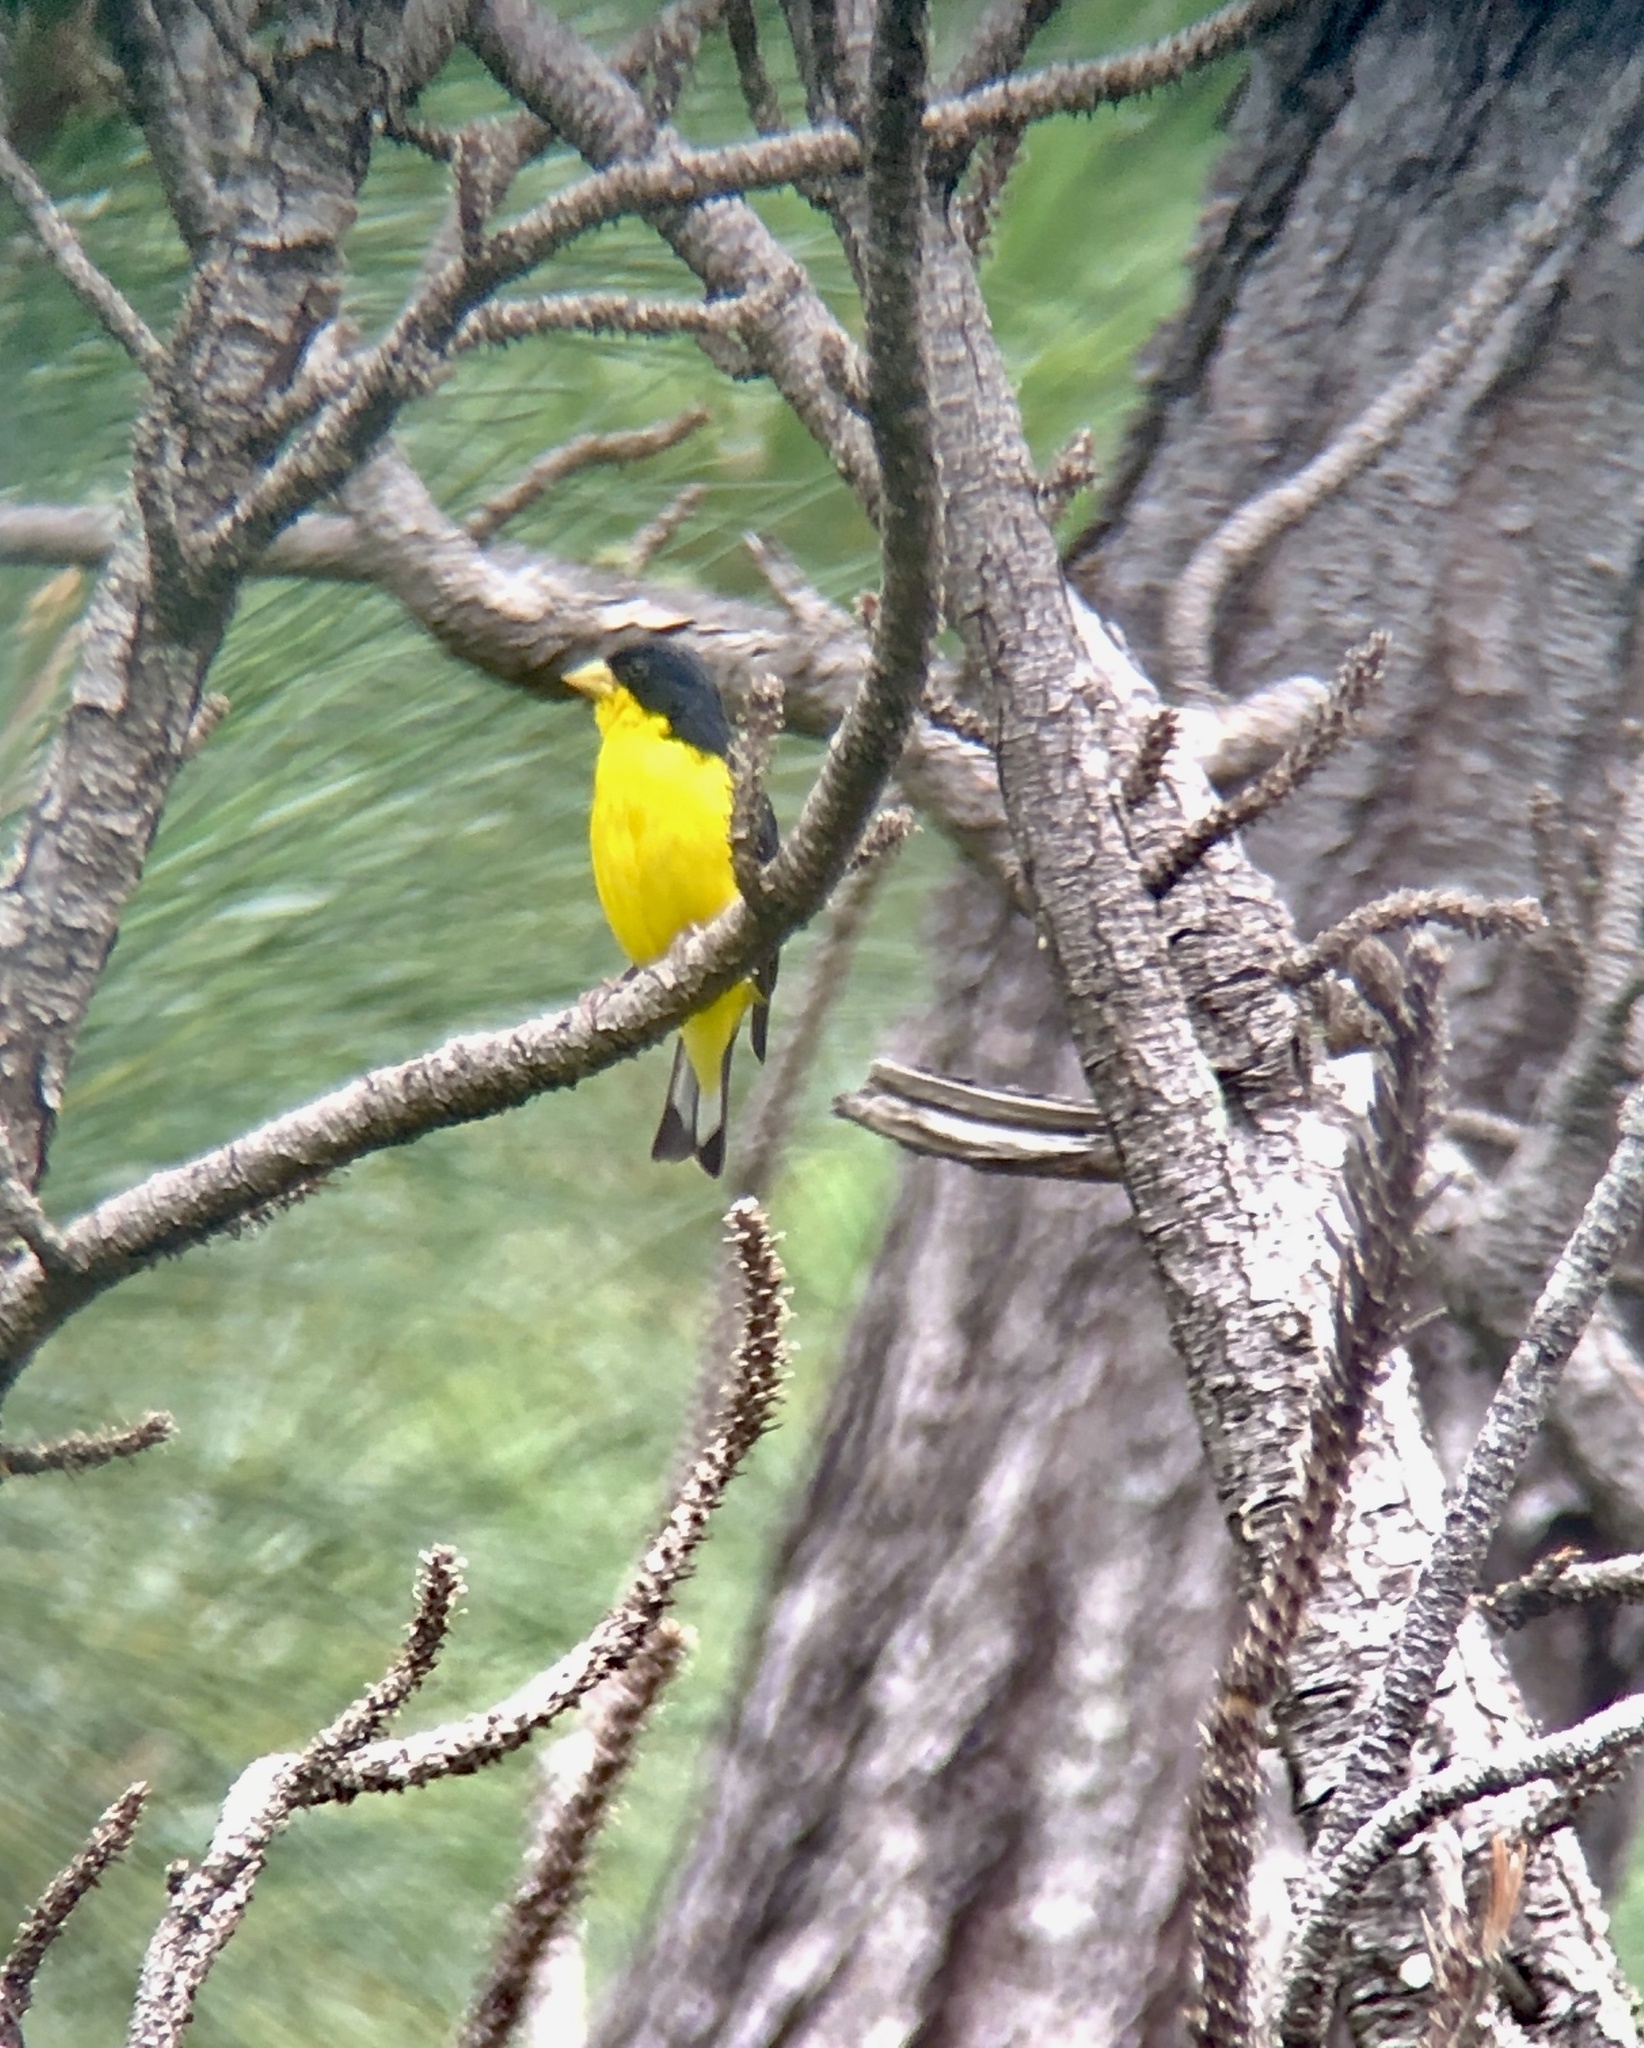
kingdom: Animalia
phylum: Chordata
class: Aves
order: Passeriformes
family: Fringillidae
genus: Spinus
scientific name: Spinus psaltria
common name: Lesser goldfinch
